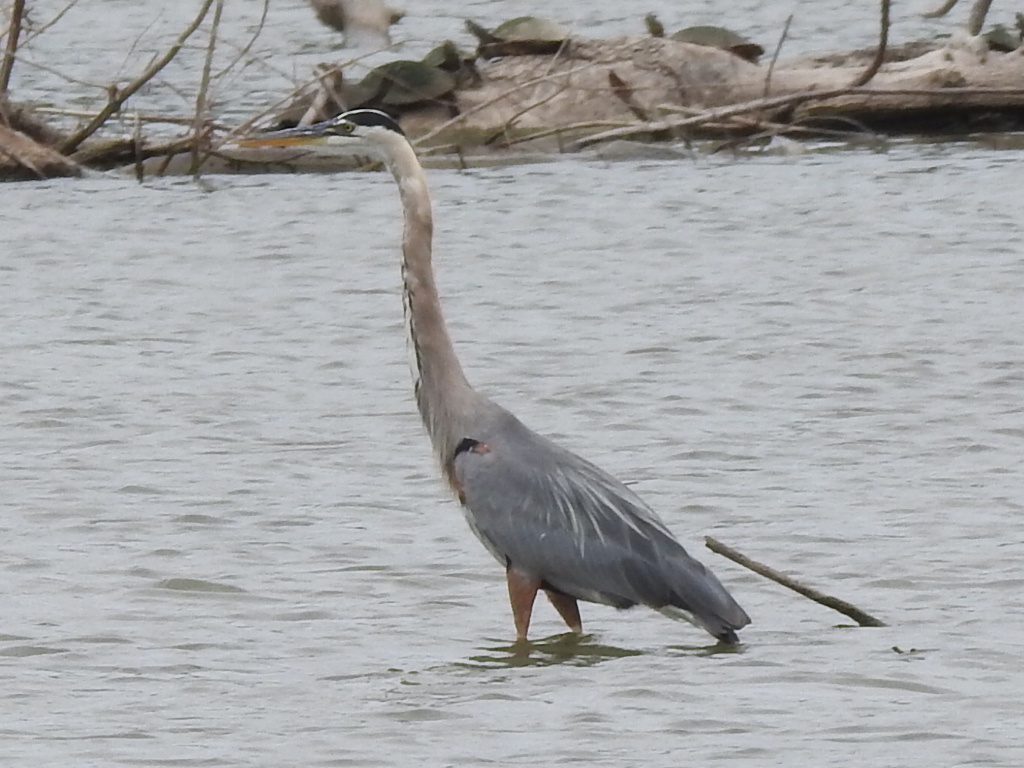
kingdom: Animalia
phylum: Chordata
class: Aves
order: Pelecaniformes
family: Ardeidae
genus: Ardea
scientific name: Ardea herodias
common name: Great blue heron
